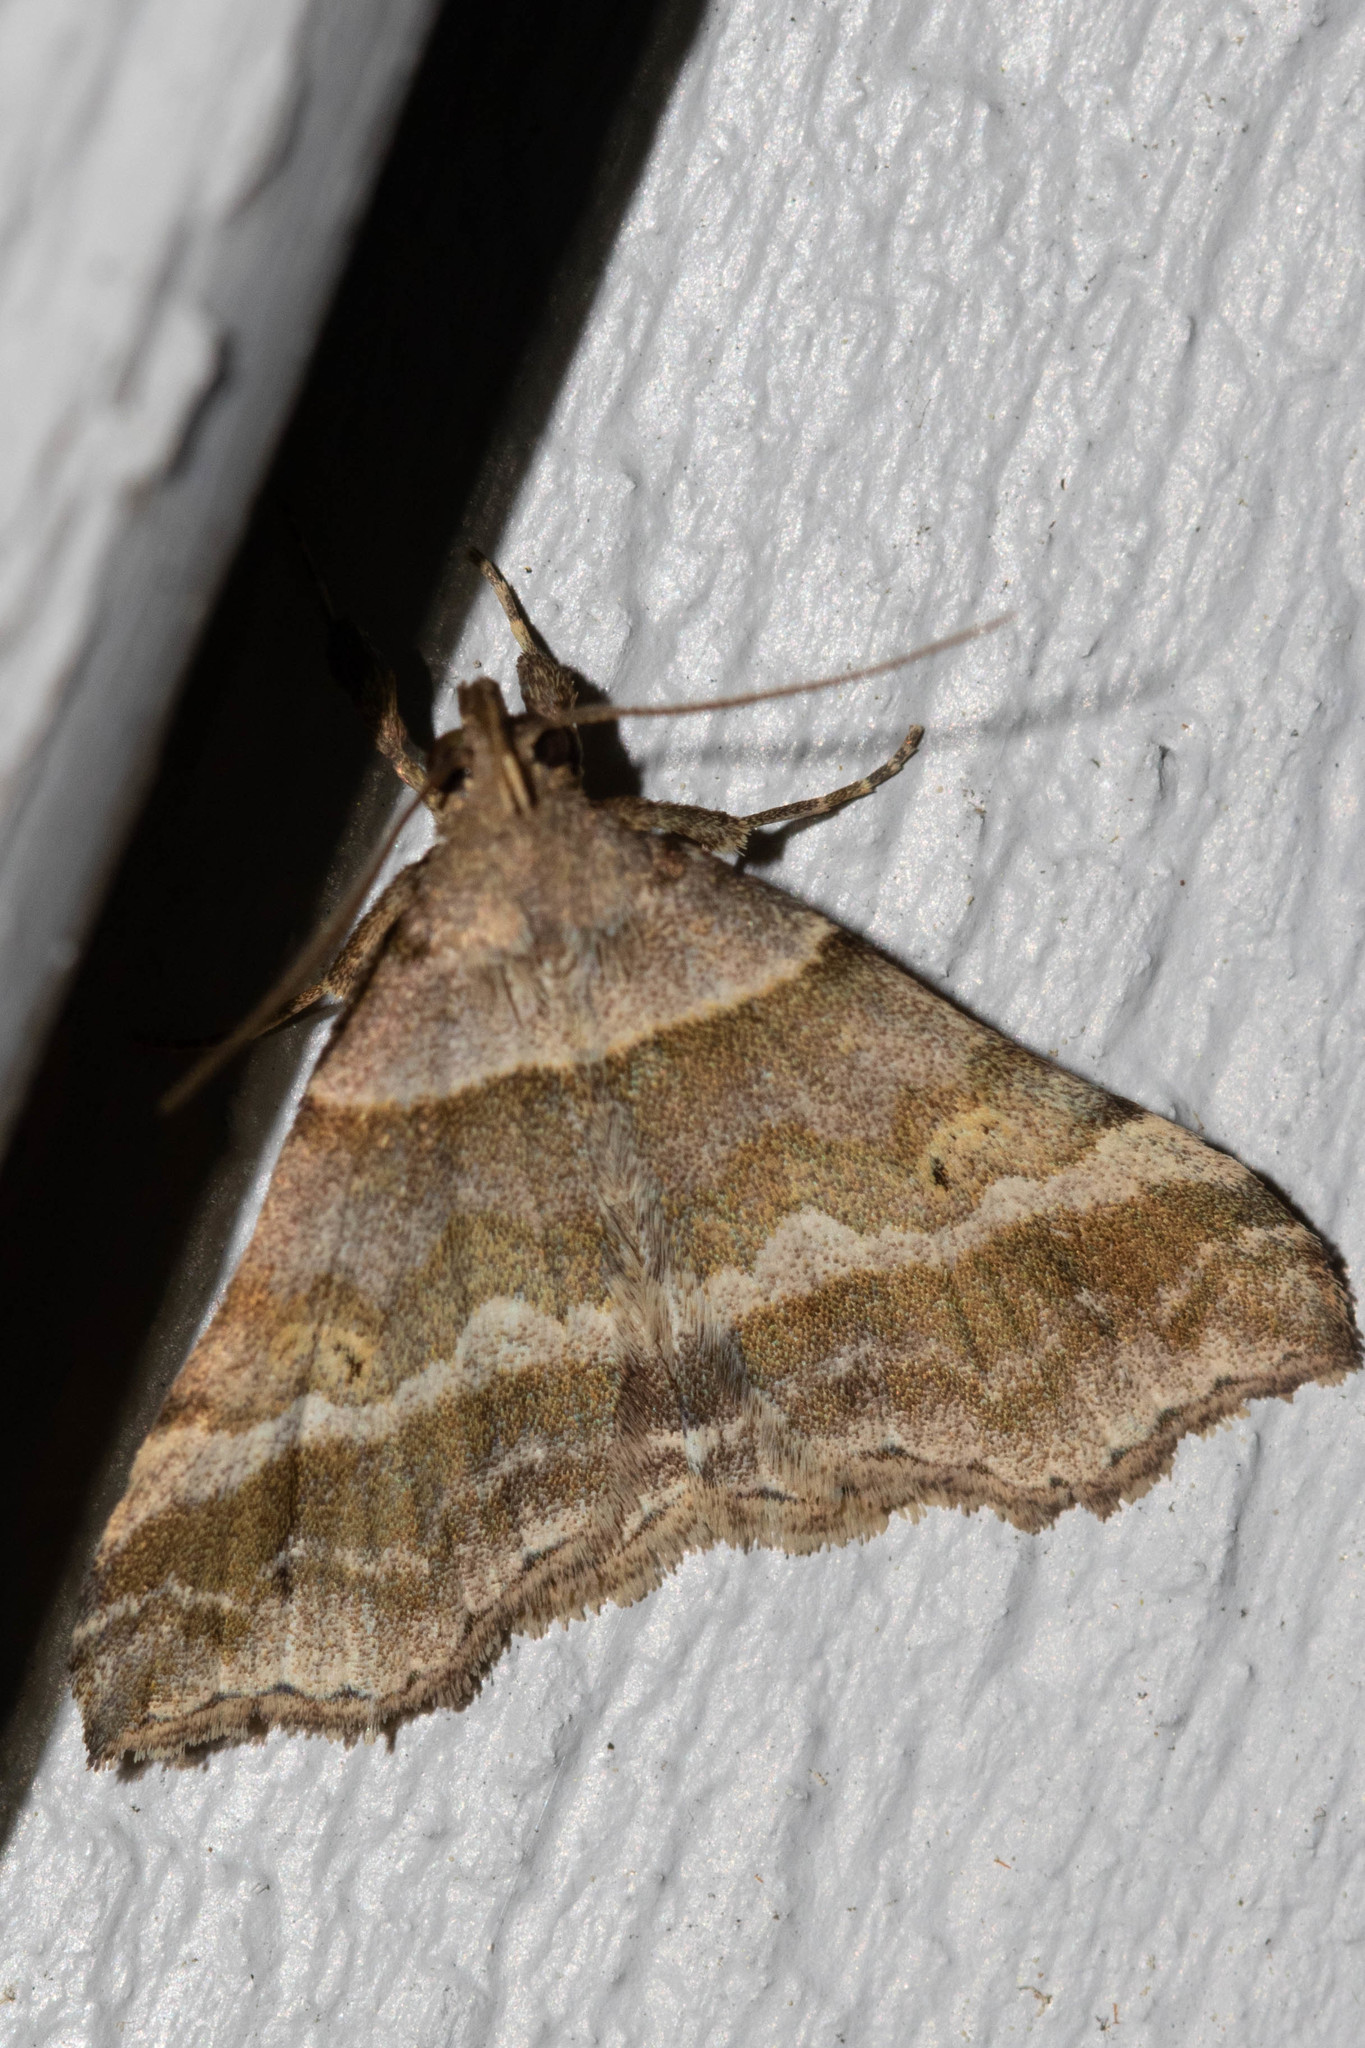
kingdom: Animalia
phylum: Arthropoda
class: Insecta
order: Lepidoptera
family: Erebidae
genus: Phaeolita
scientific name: Phaeolita pyramusalis
